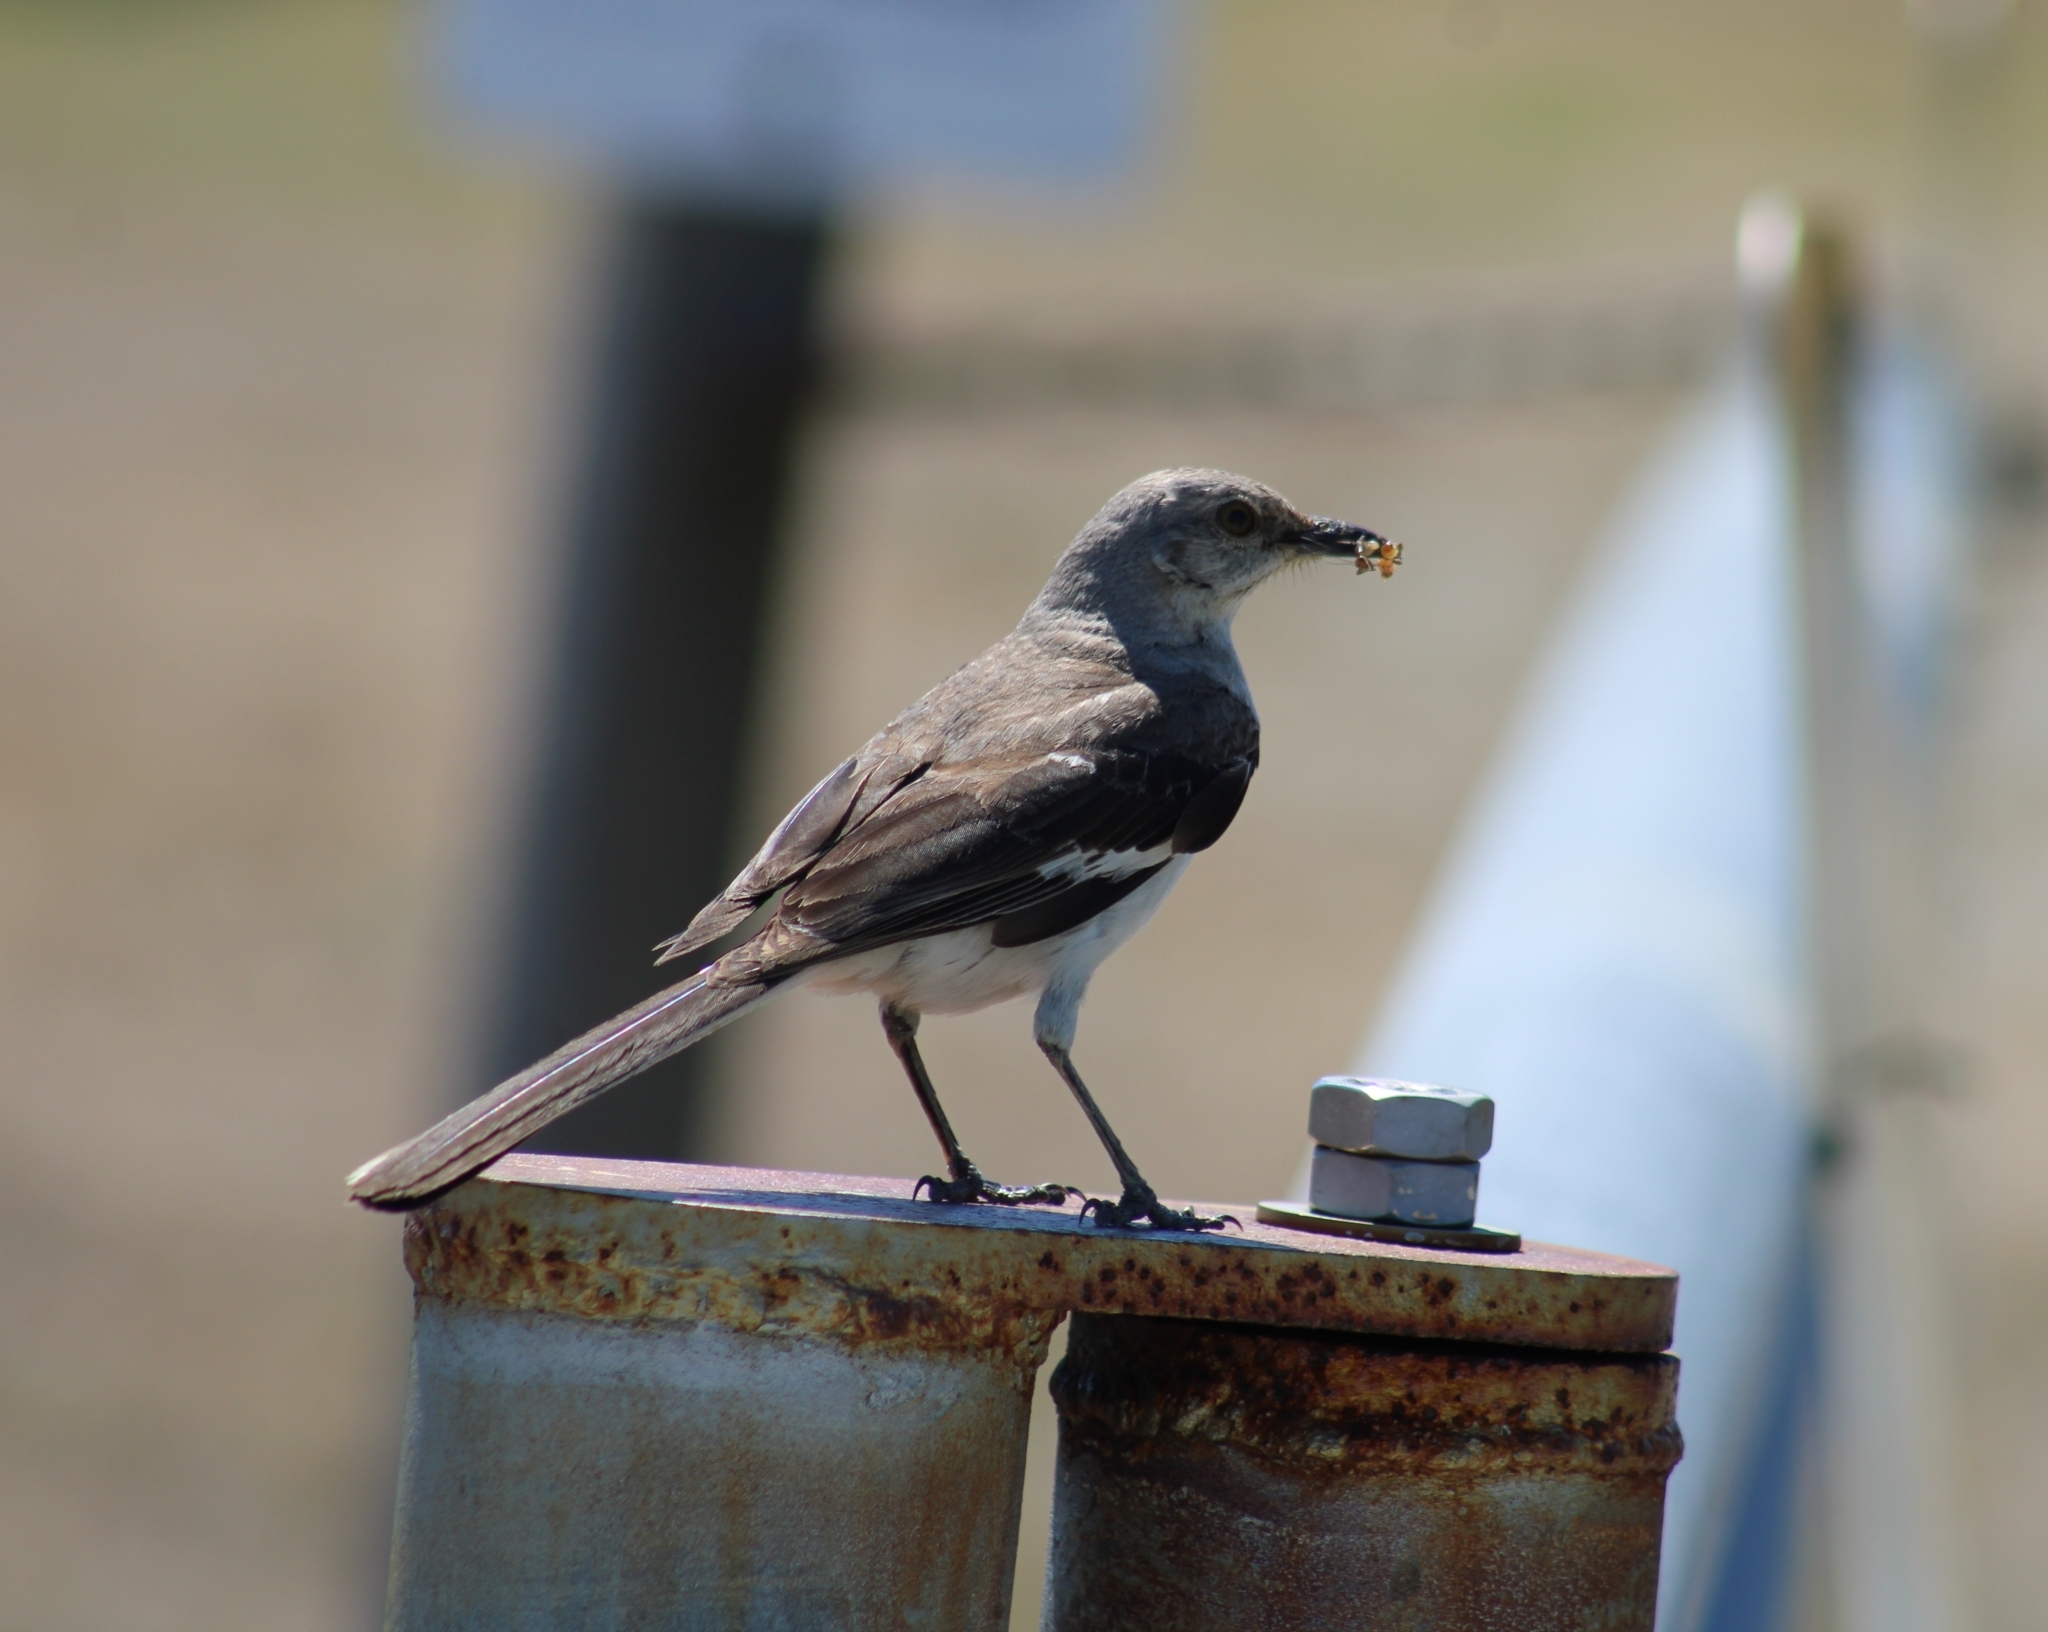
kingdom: Animalia
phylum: Chordata
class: Aves
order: Passeriformes
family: Mimidae
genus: Mimus
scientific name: Mimus polyglottos
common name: Northern mockingbird
